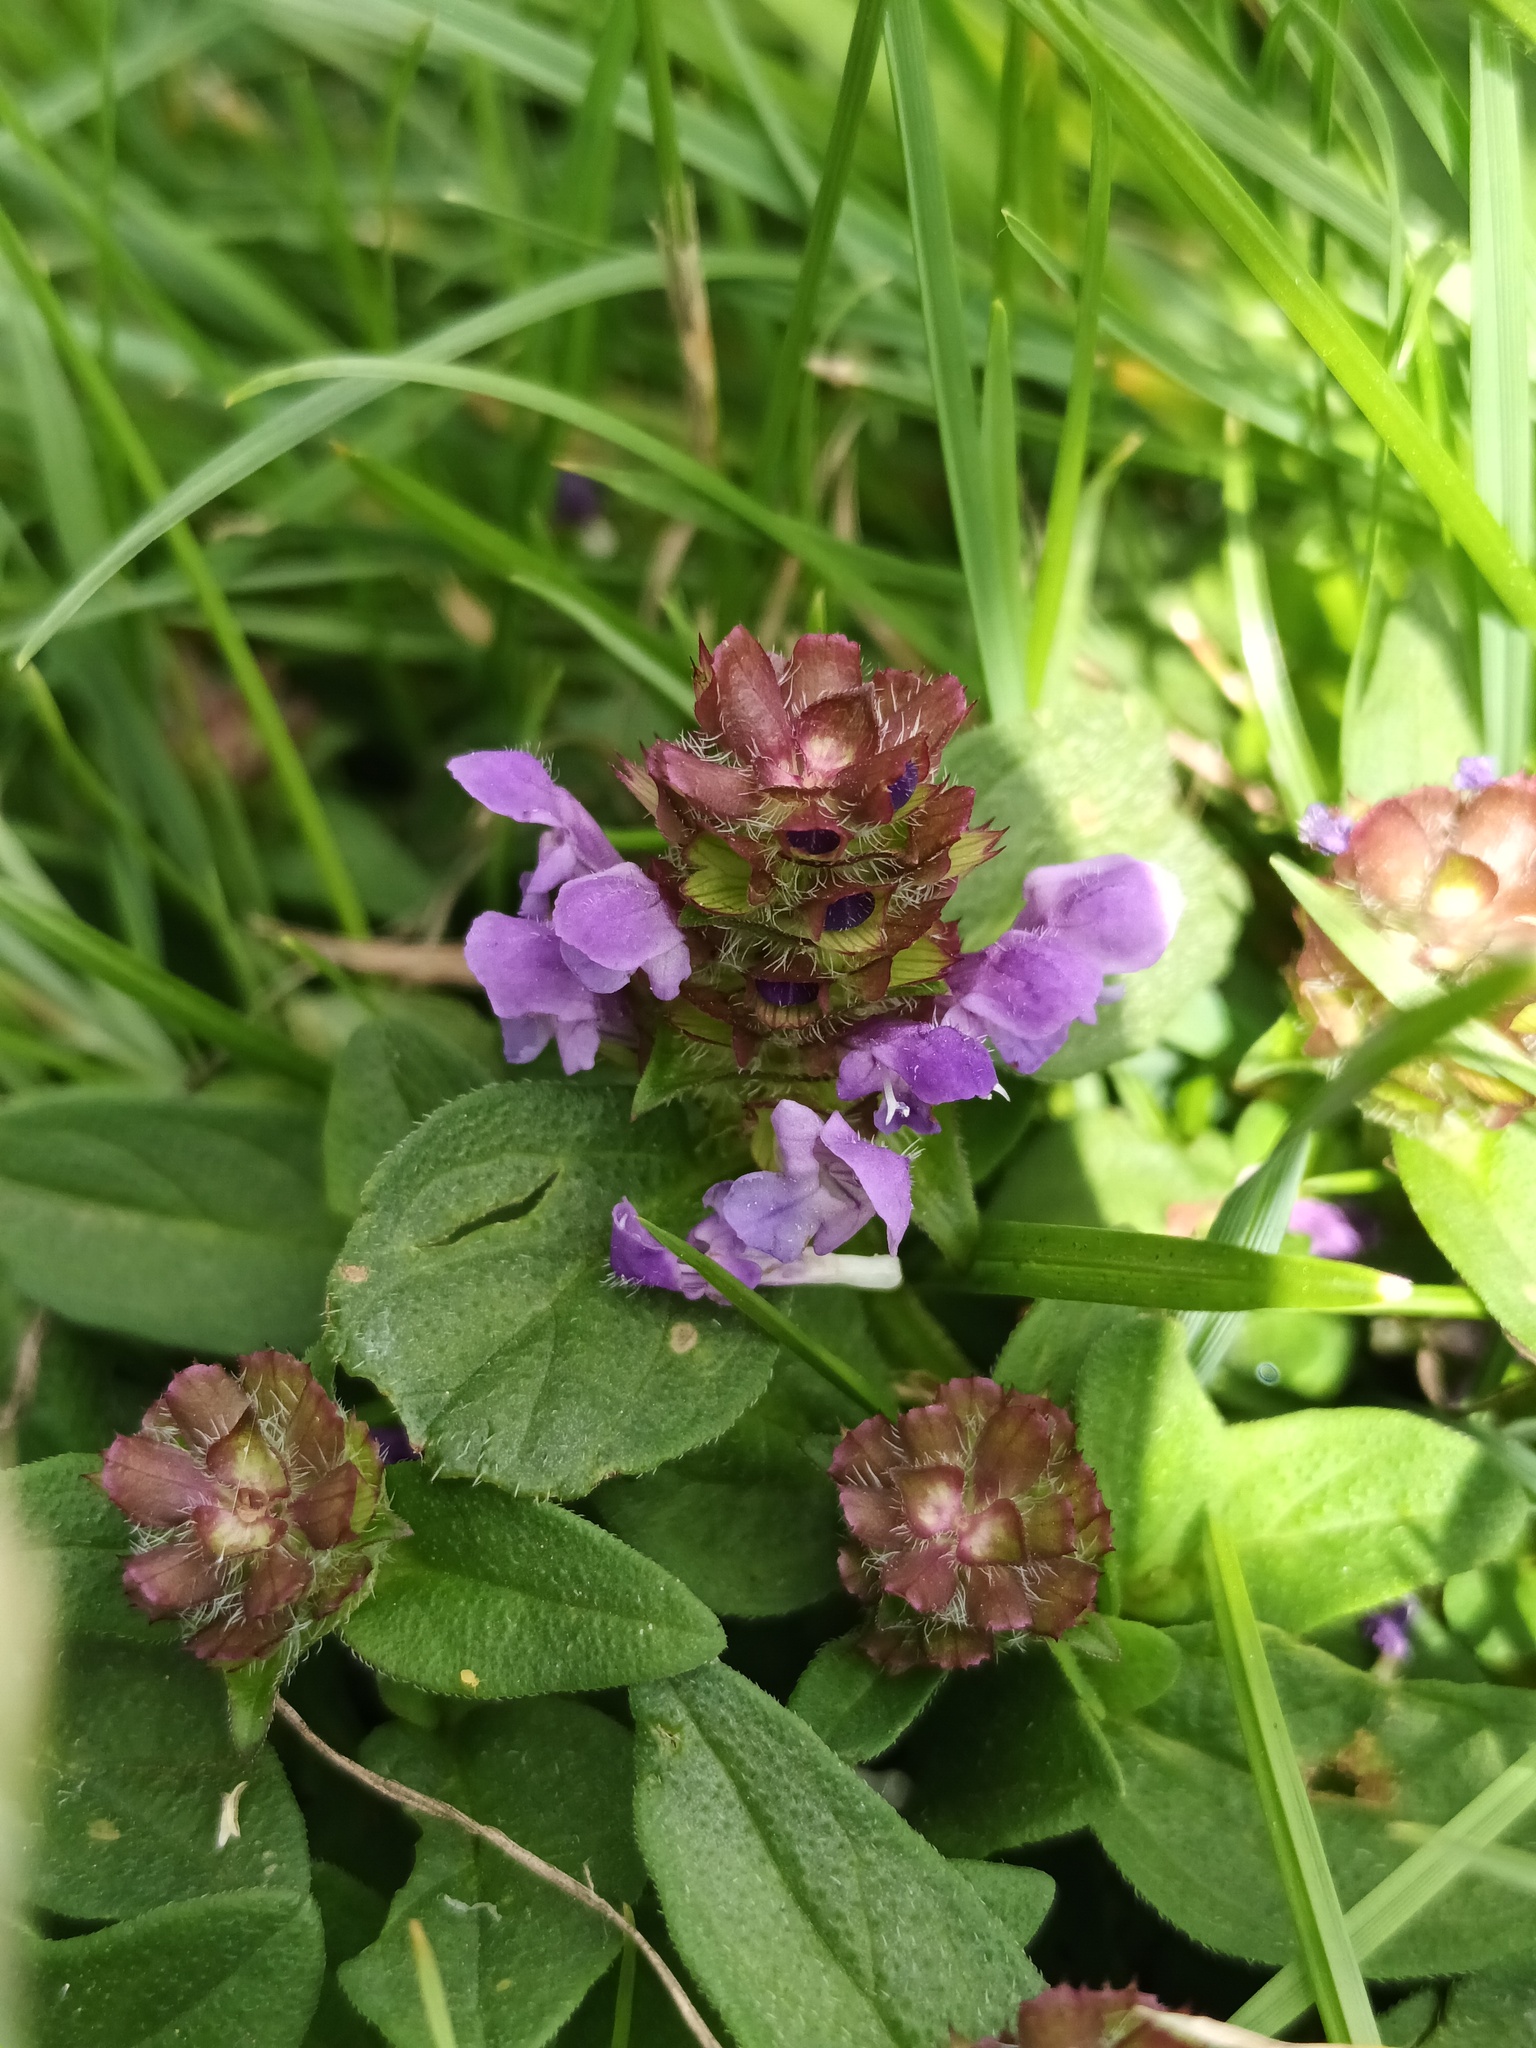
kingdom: Plantae
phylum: Tracheophyta
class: Magnoliopsida
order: Lamiales
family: Lamiaceae
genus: Prunella
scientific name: Prunella vulgaris
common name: Heal-all
